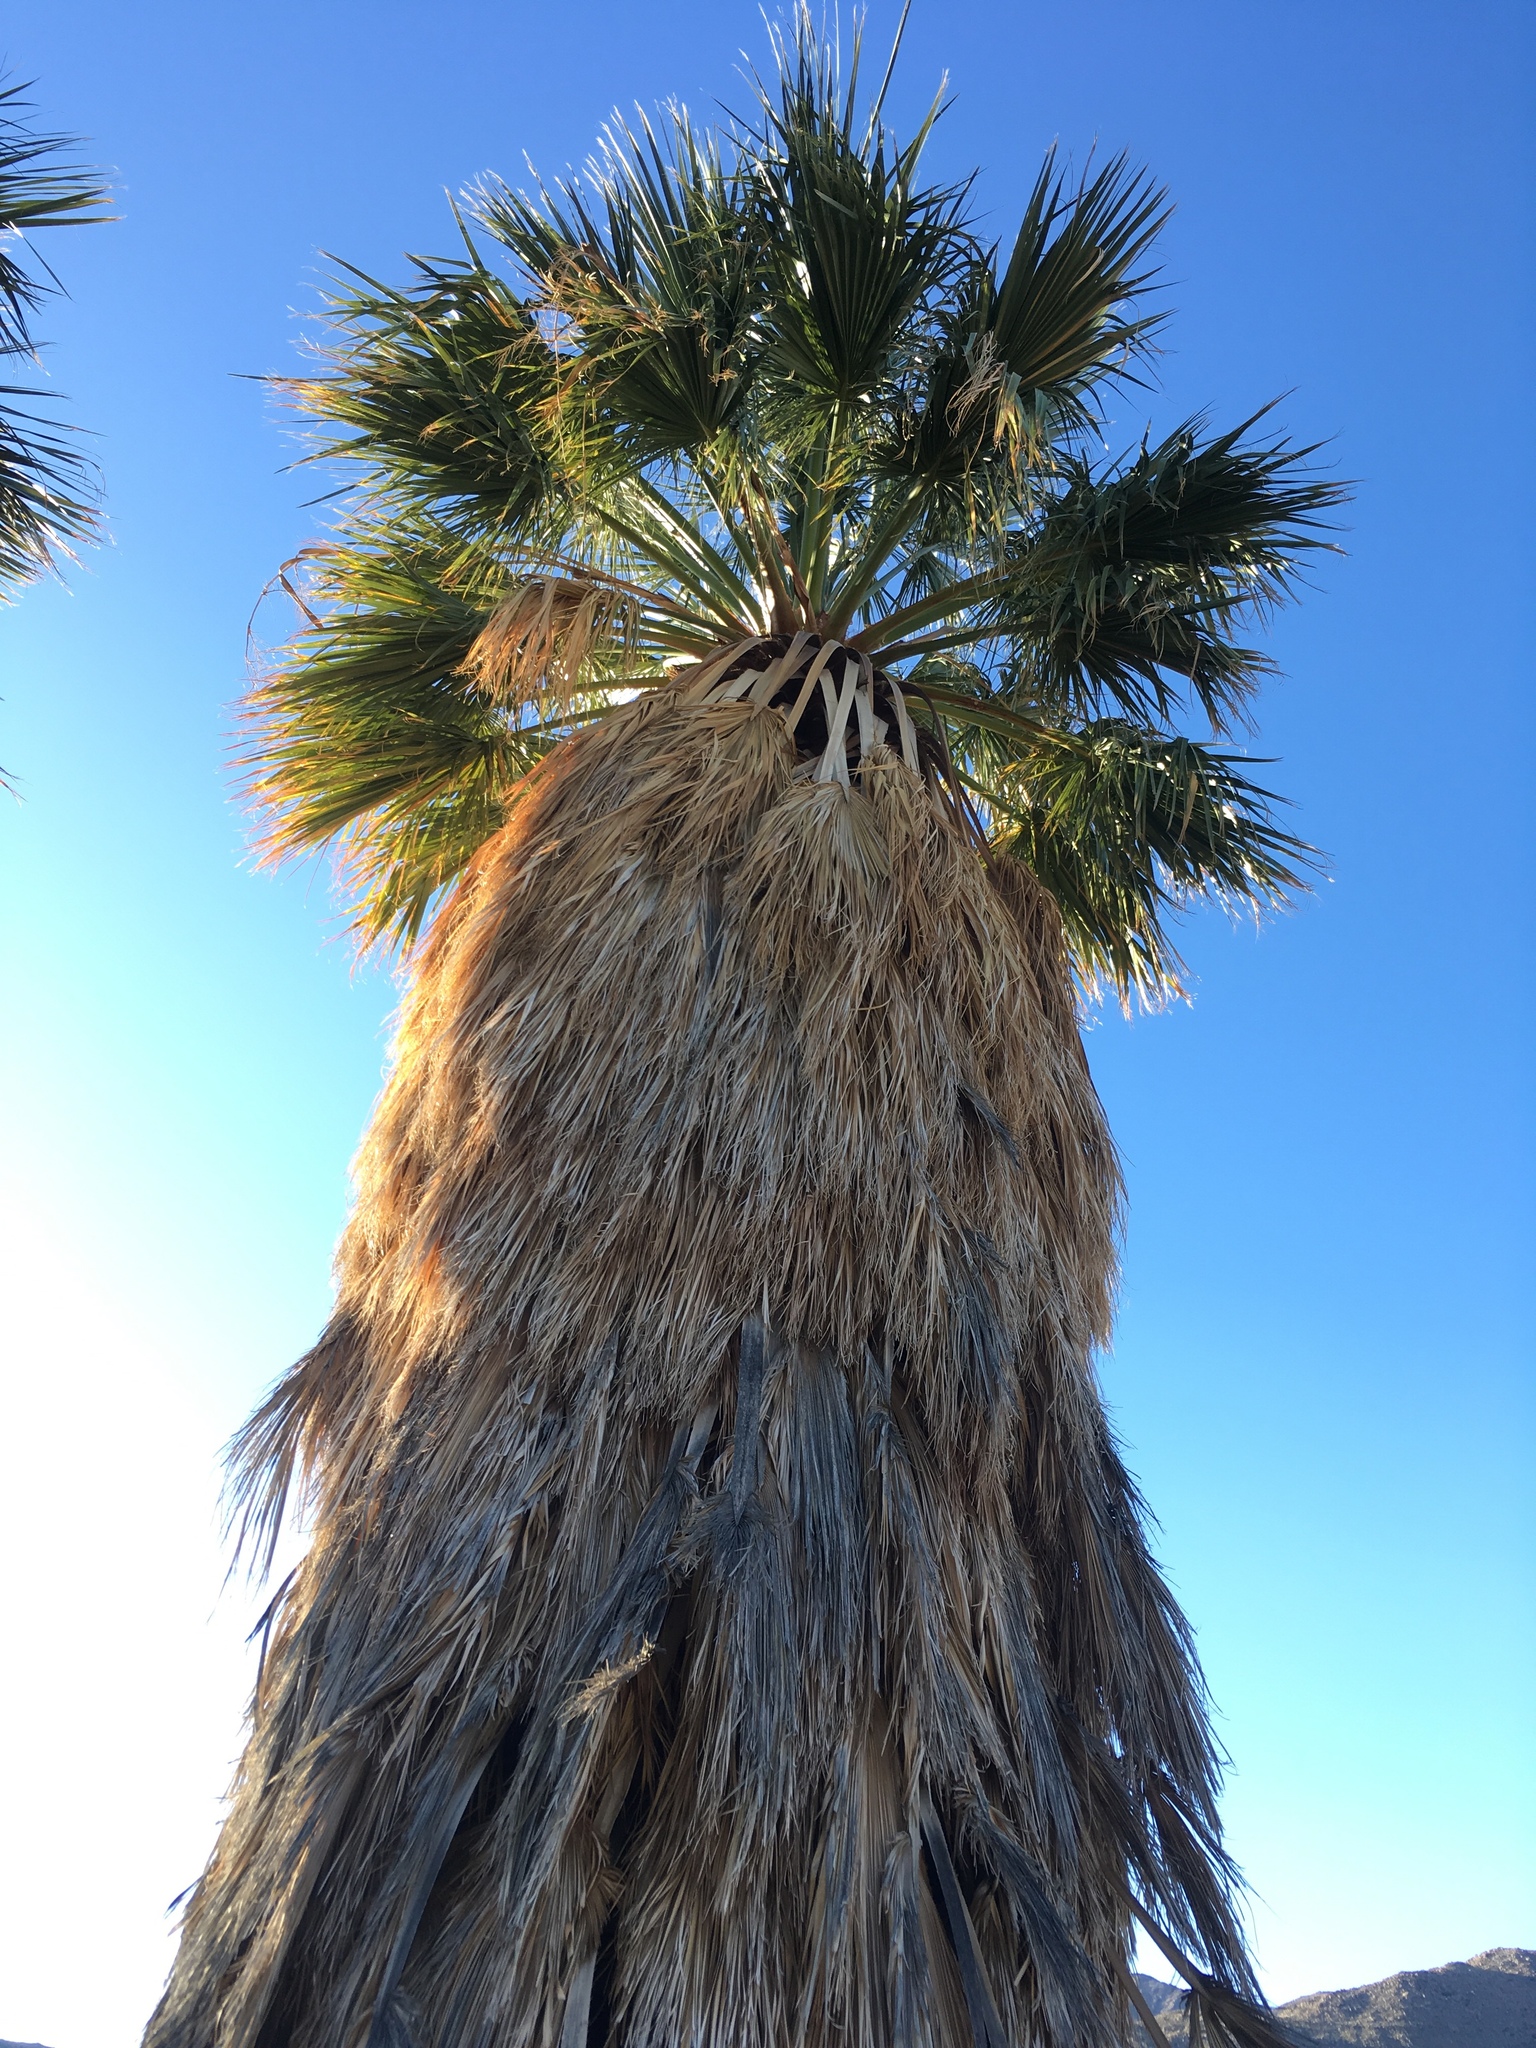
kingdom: Plantae
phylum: Tracheophyta
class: Liliopsida
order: Arecales
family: Arecaceae
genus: Washingtonia
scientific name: Washingtonia filifera
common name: California fan palm
